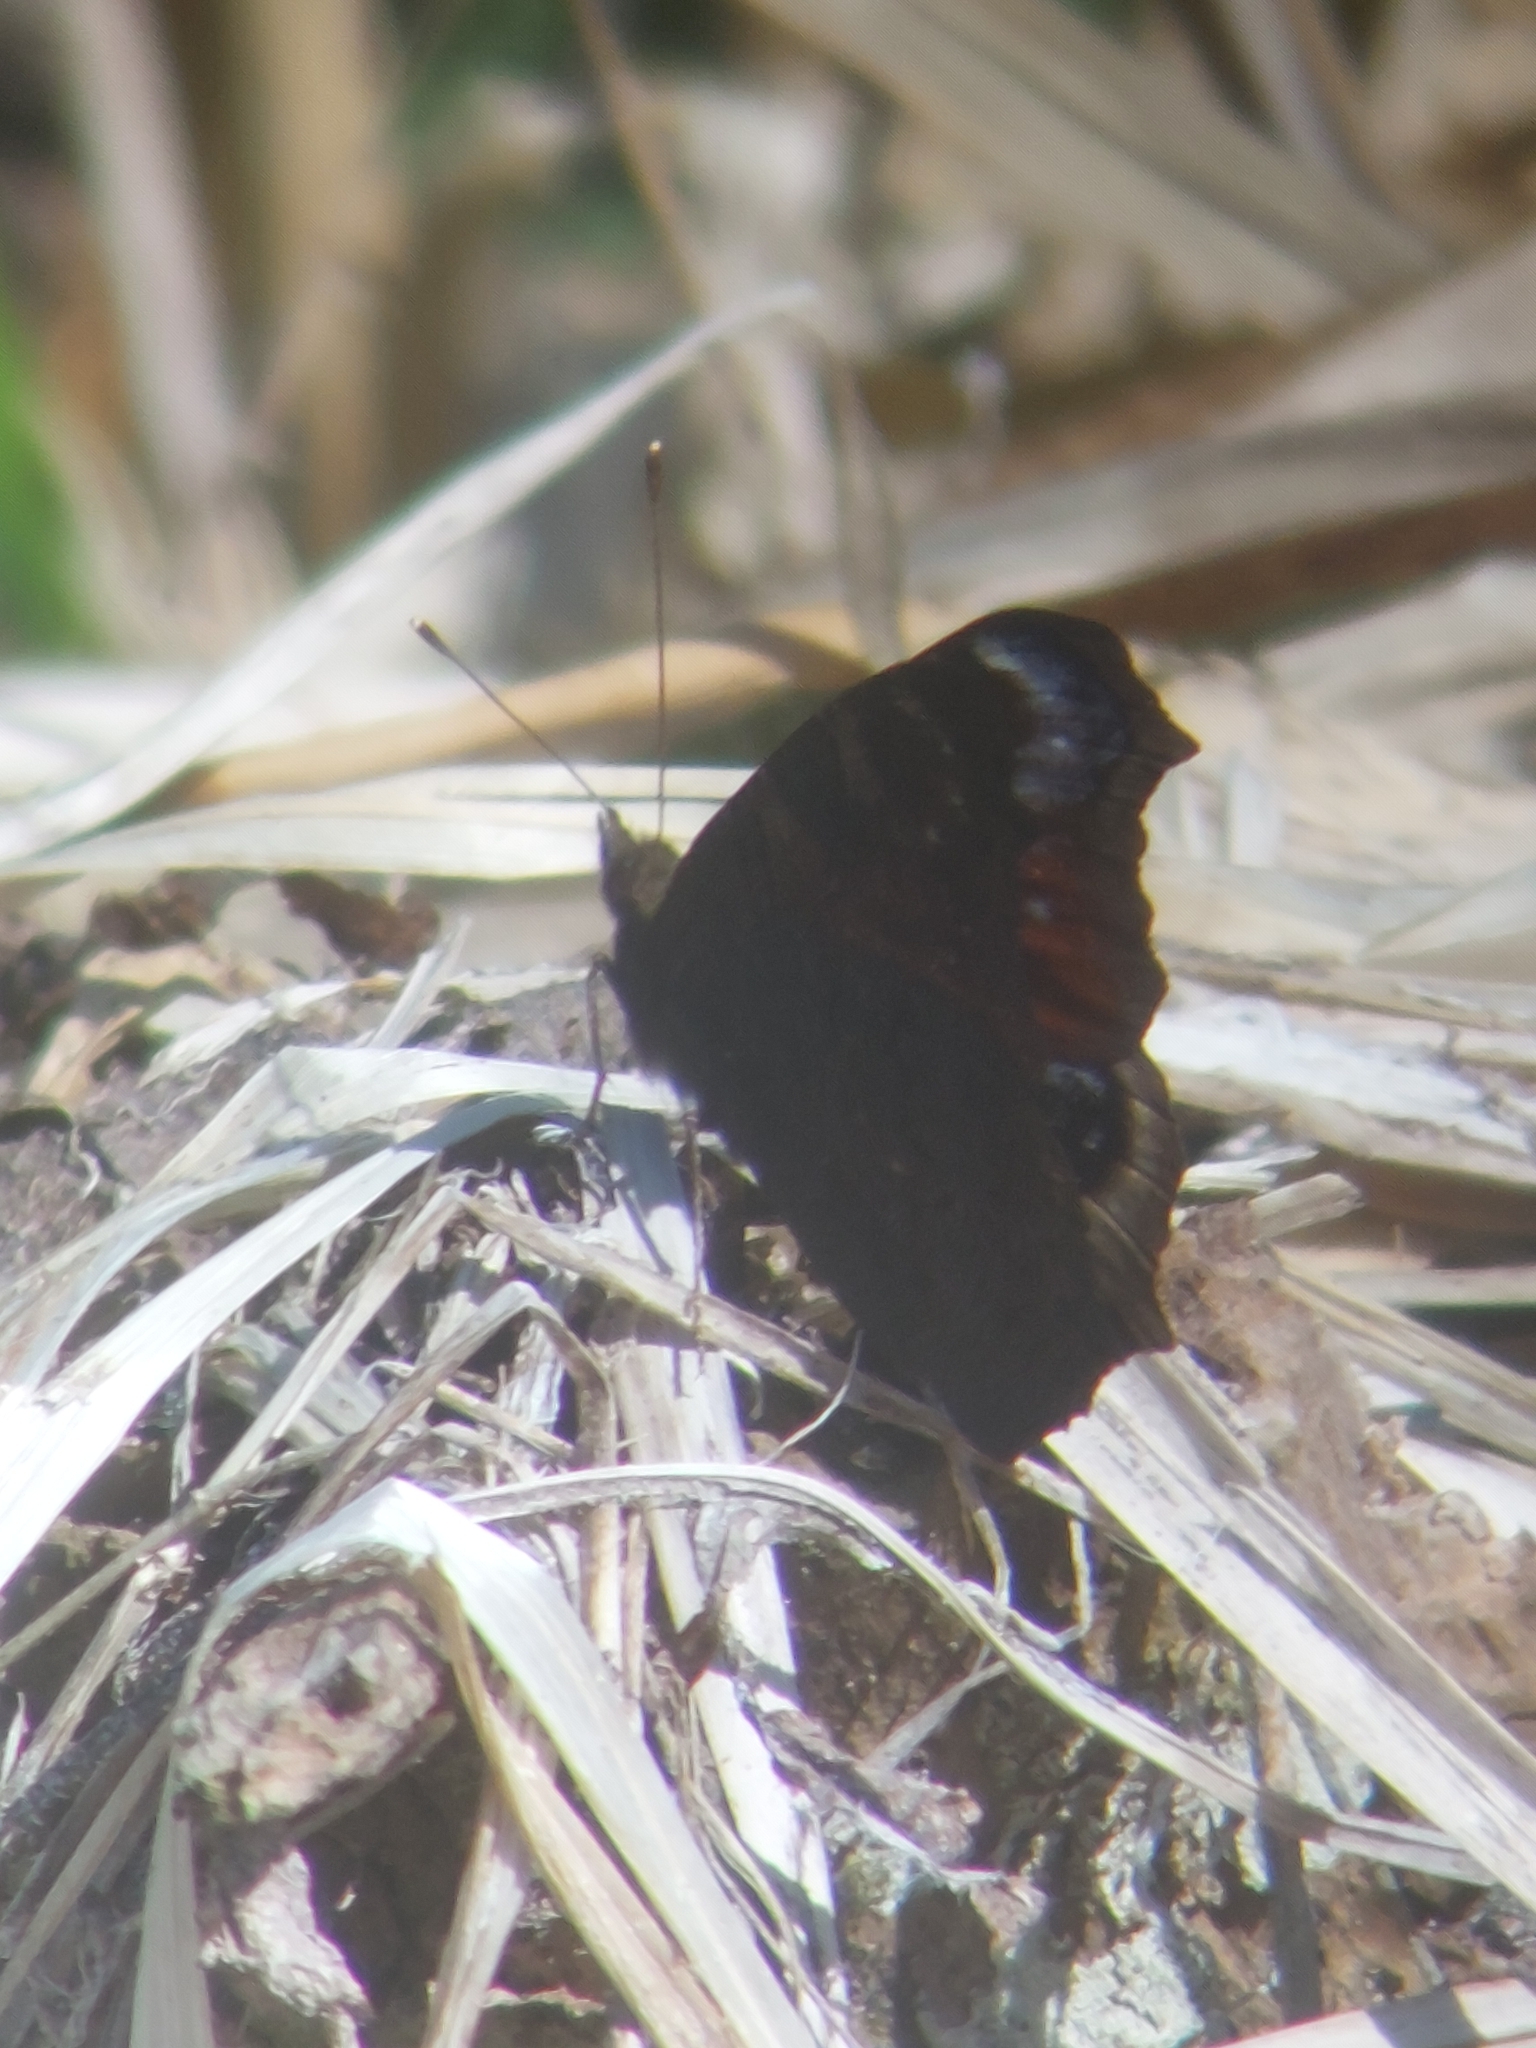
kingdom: Animalia
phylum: Arthropoda
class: Insecta
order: Lepidoptera
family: Nymphalidae
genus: Aglais
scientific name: Aglais io
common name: Peacock
